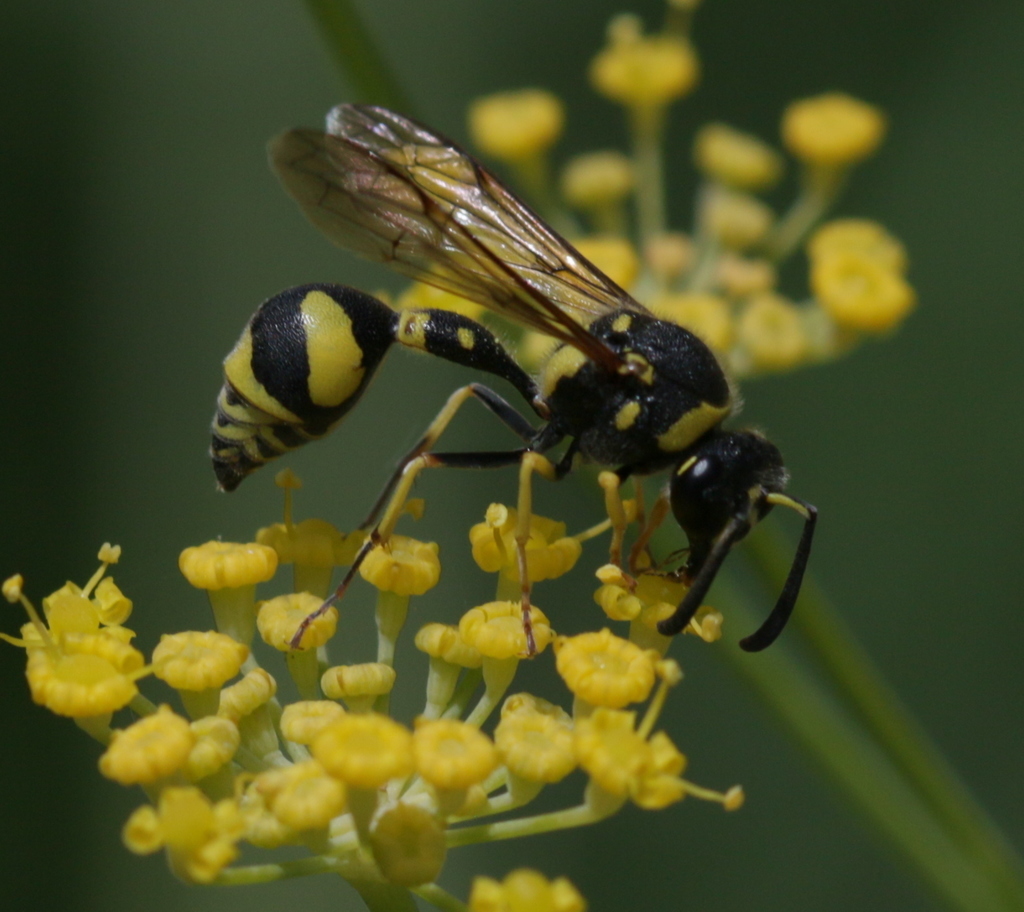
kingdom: Plantae
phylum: Tracheophyta
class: Magnoliopsida
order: Apiales
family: Apiaceae
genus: Foeniculum
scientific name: Foeniculum vulgare
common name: Fennel
